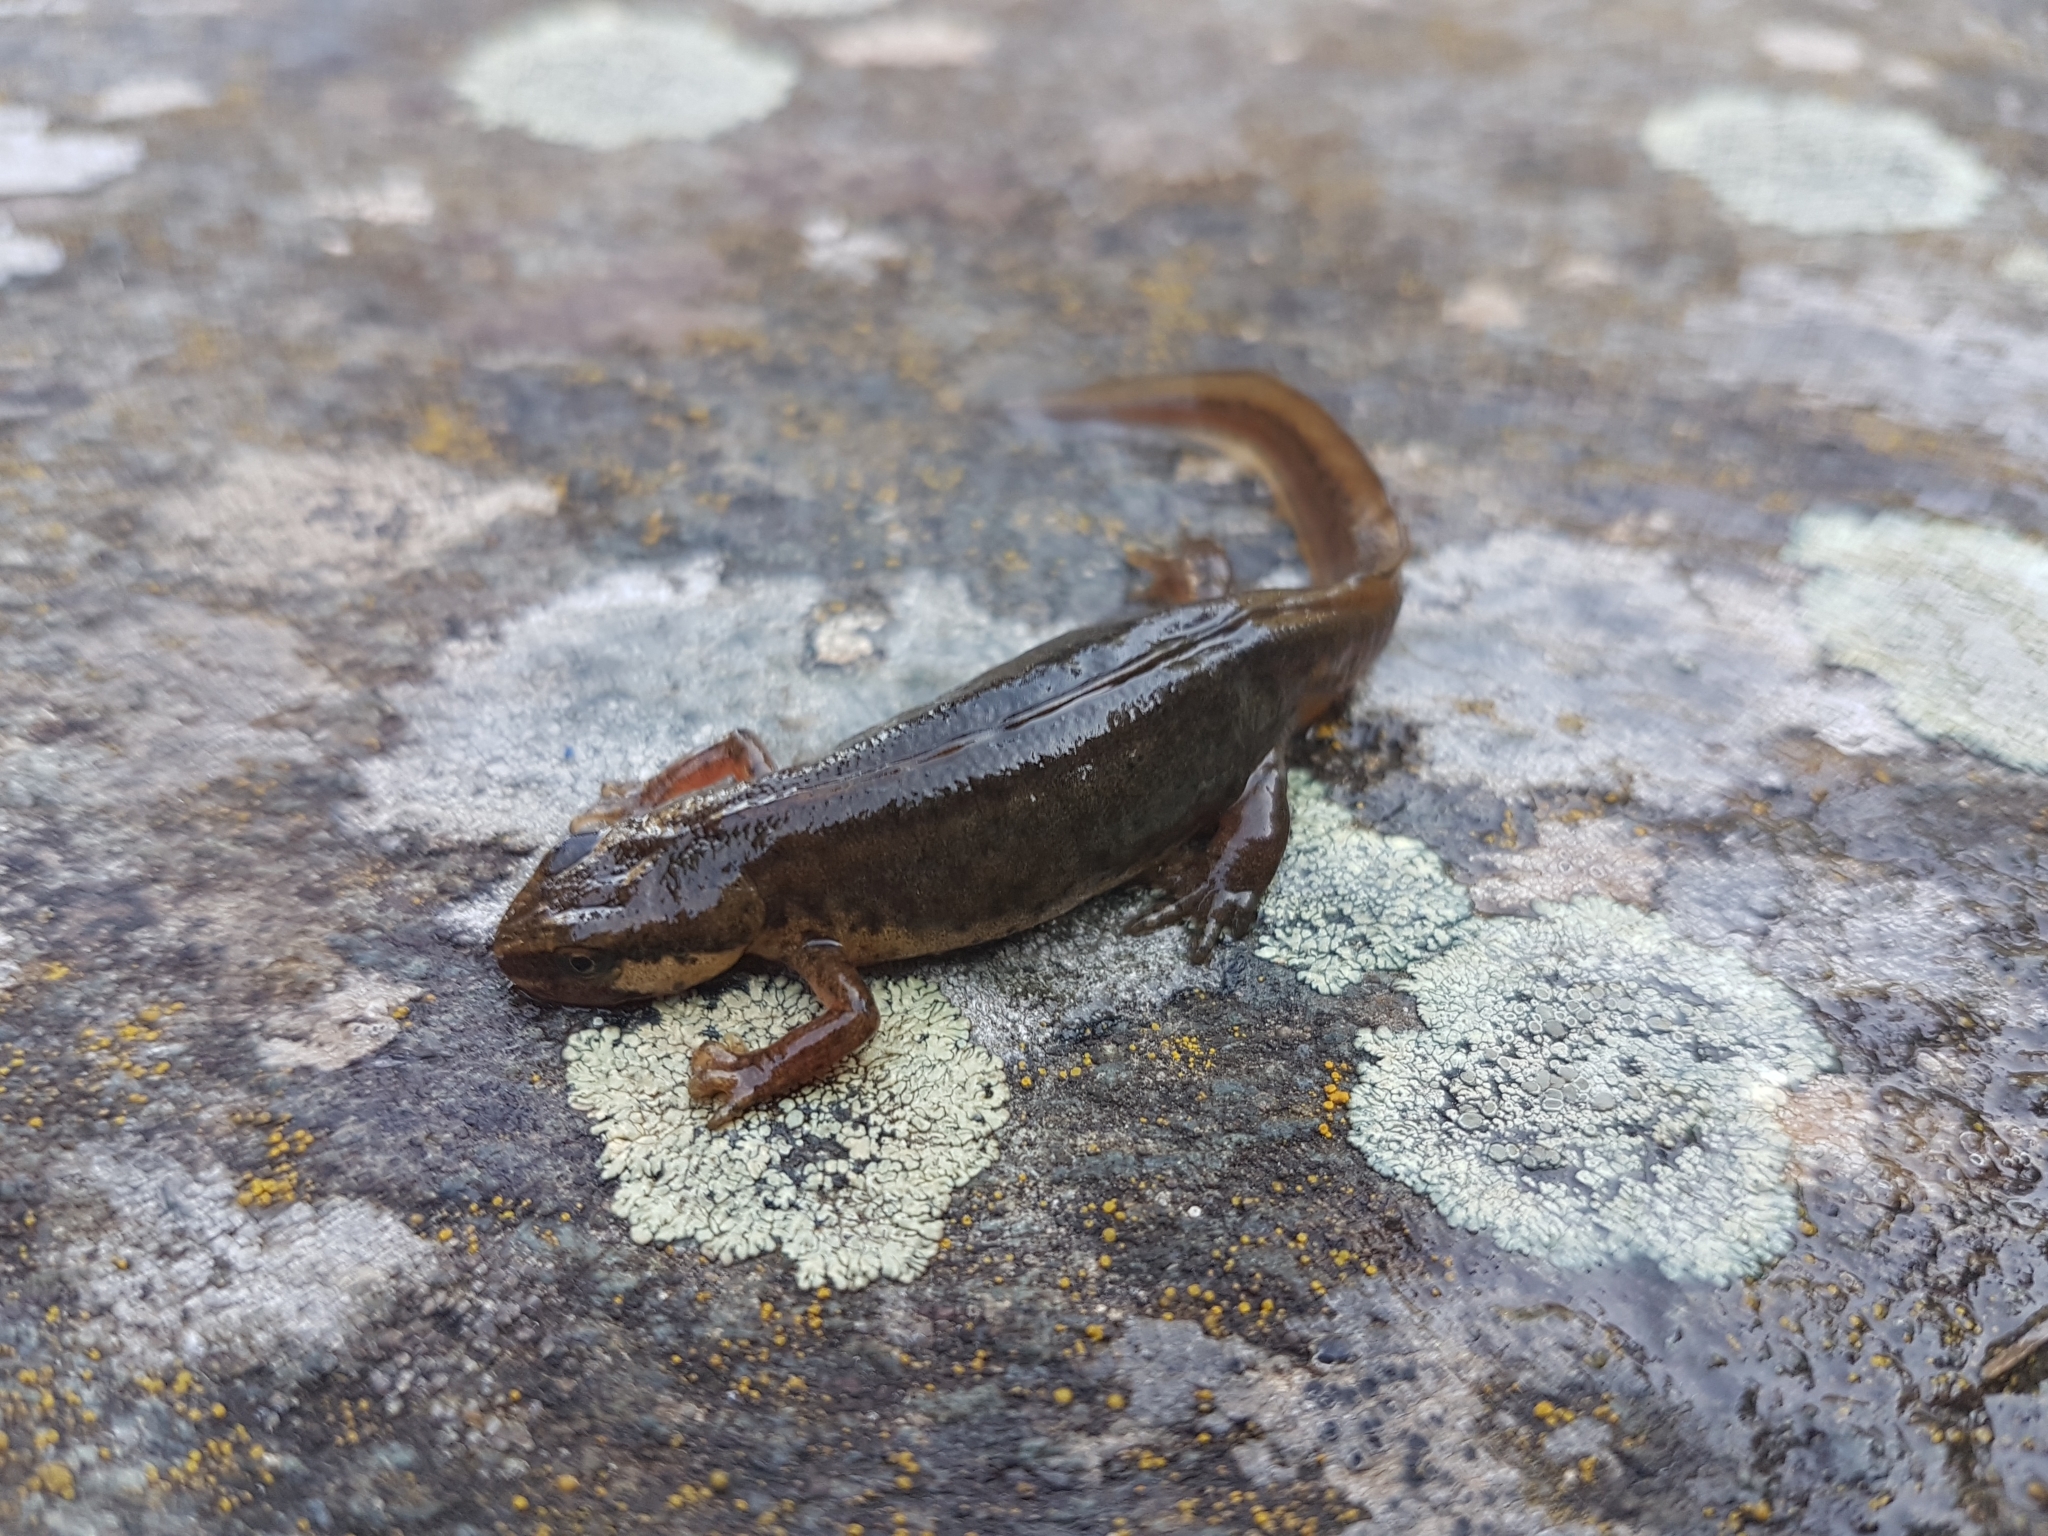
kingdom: Animalia
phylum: Chordata
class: Amphibia
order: Caudata
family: Salamandridae
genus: Lissotriton
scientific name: Lissotriton helveticus
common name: Palmate newt
